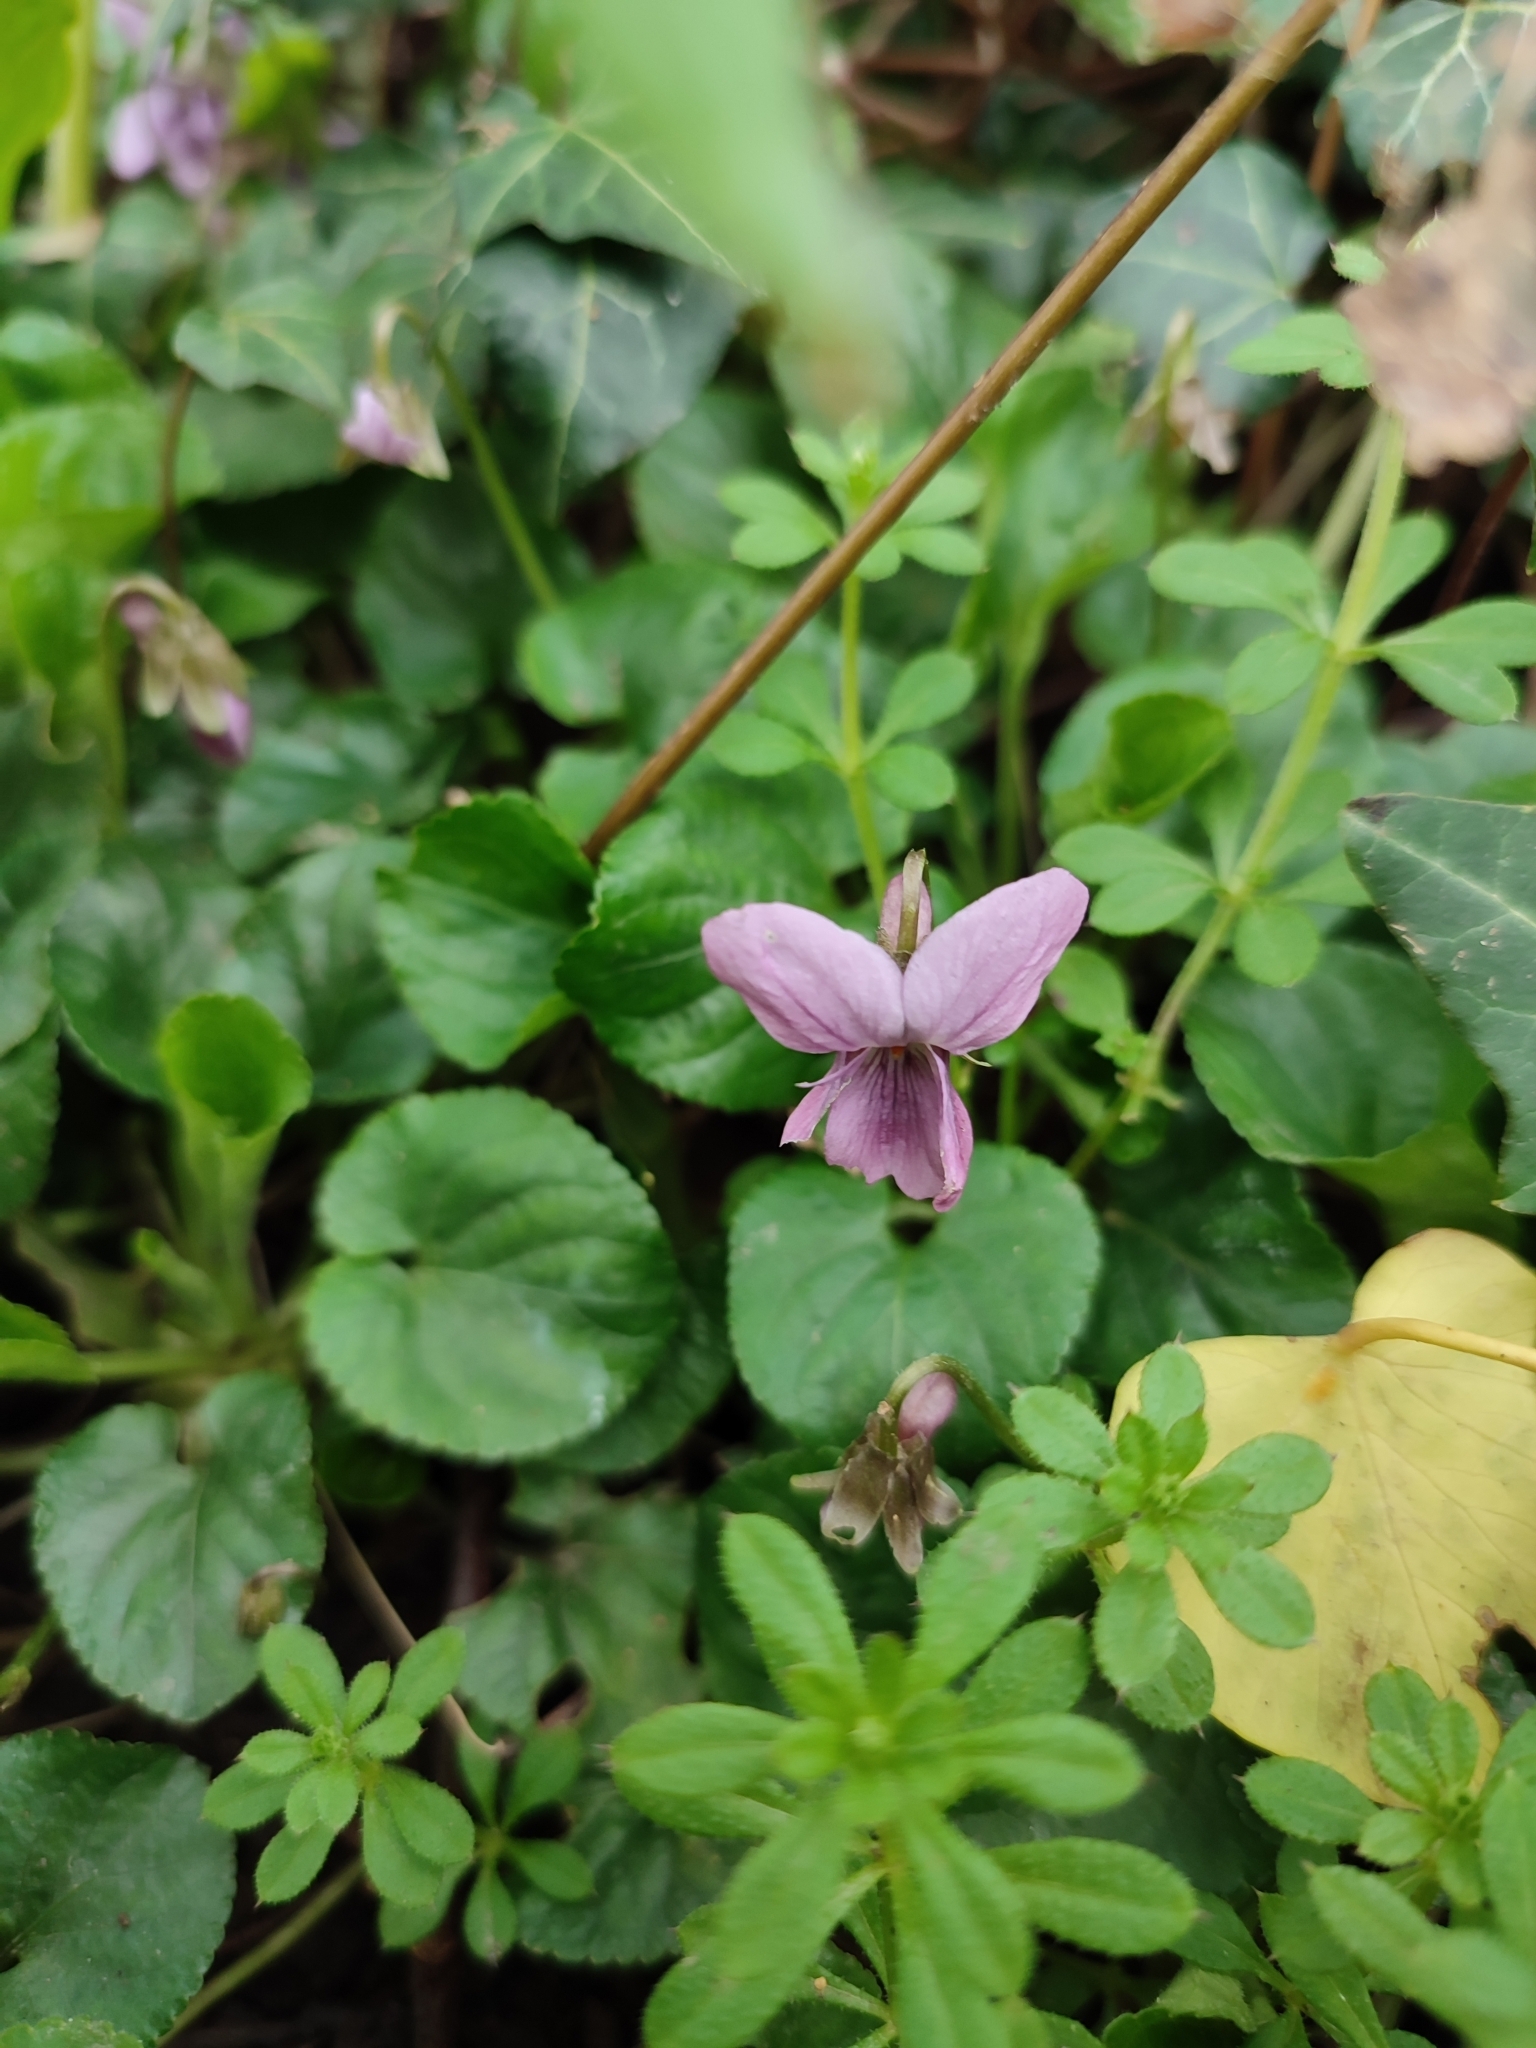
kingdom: Plantae
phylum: Tracheophyta
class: Magnoliopsida
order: Malpighiales
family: Violaceae
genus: Viola
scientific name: Viola odorata
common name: Sweet violet
